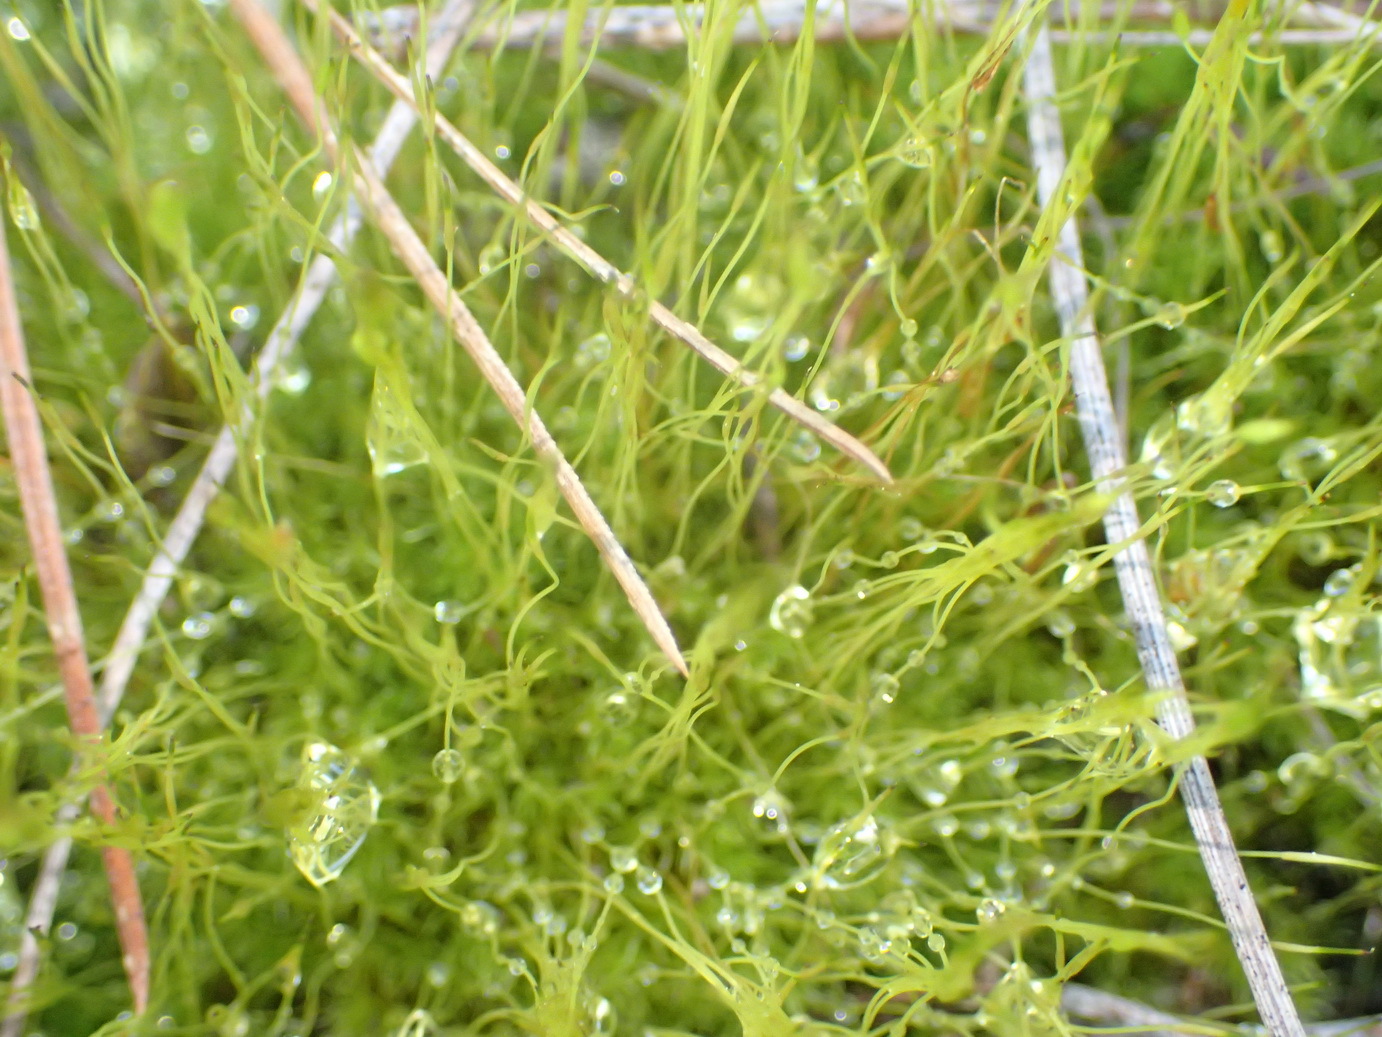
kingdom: Plantae
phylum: Bryophyta
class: Bryopsida
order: Dicranales
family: Ditrichaceae
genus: Ceratodon
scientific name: Ceratodon purpureus
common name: Redshank
